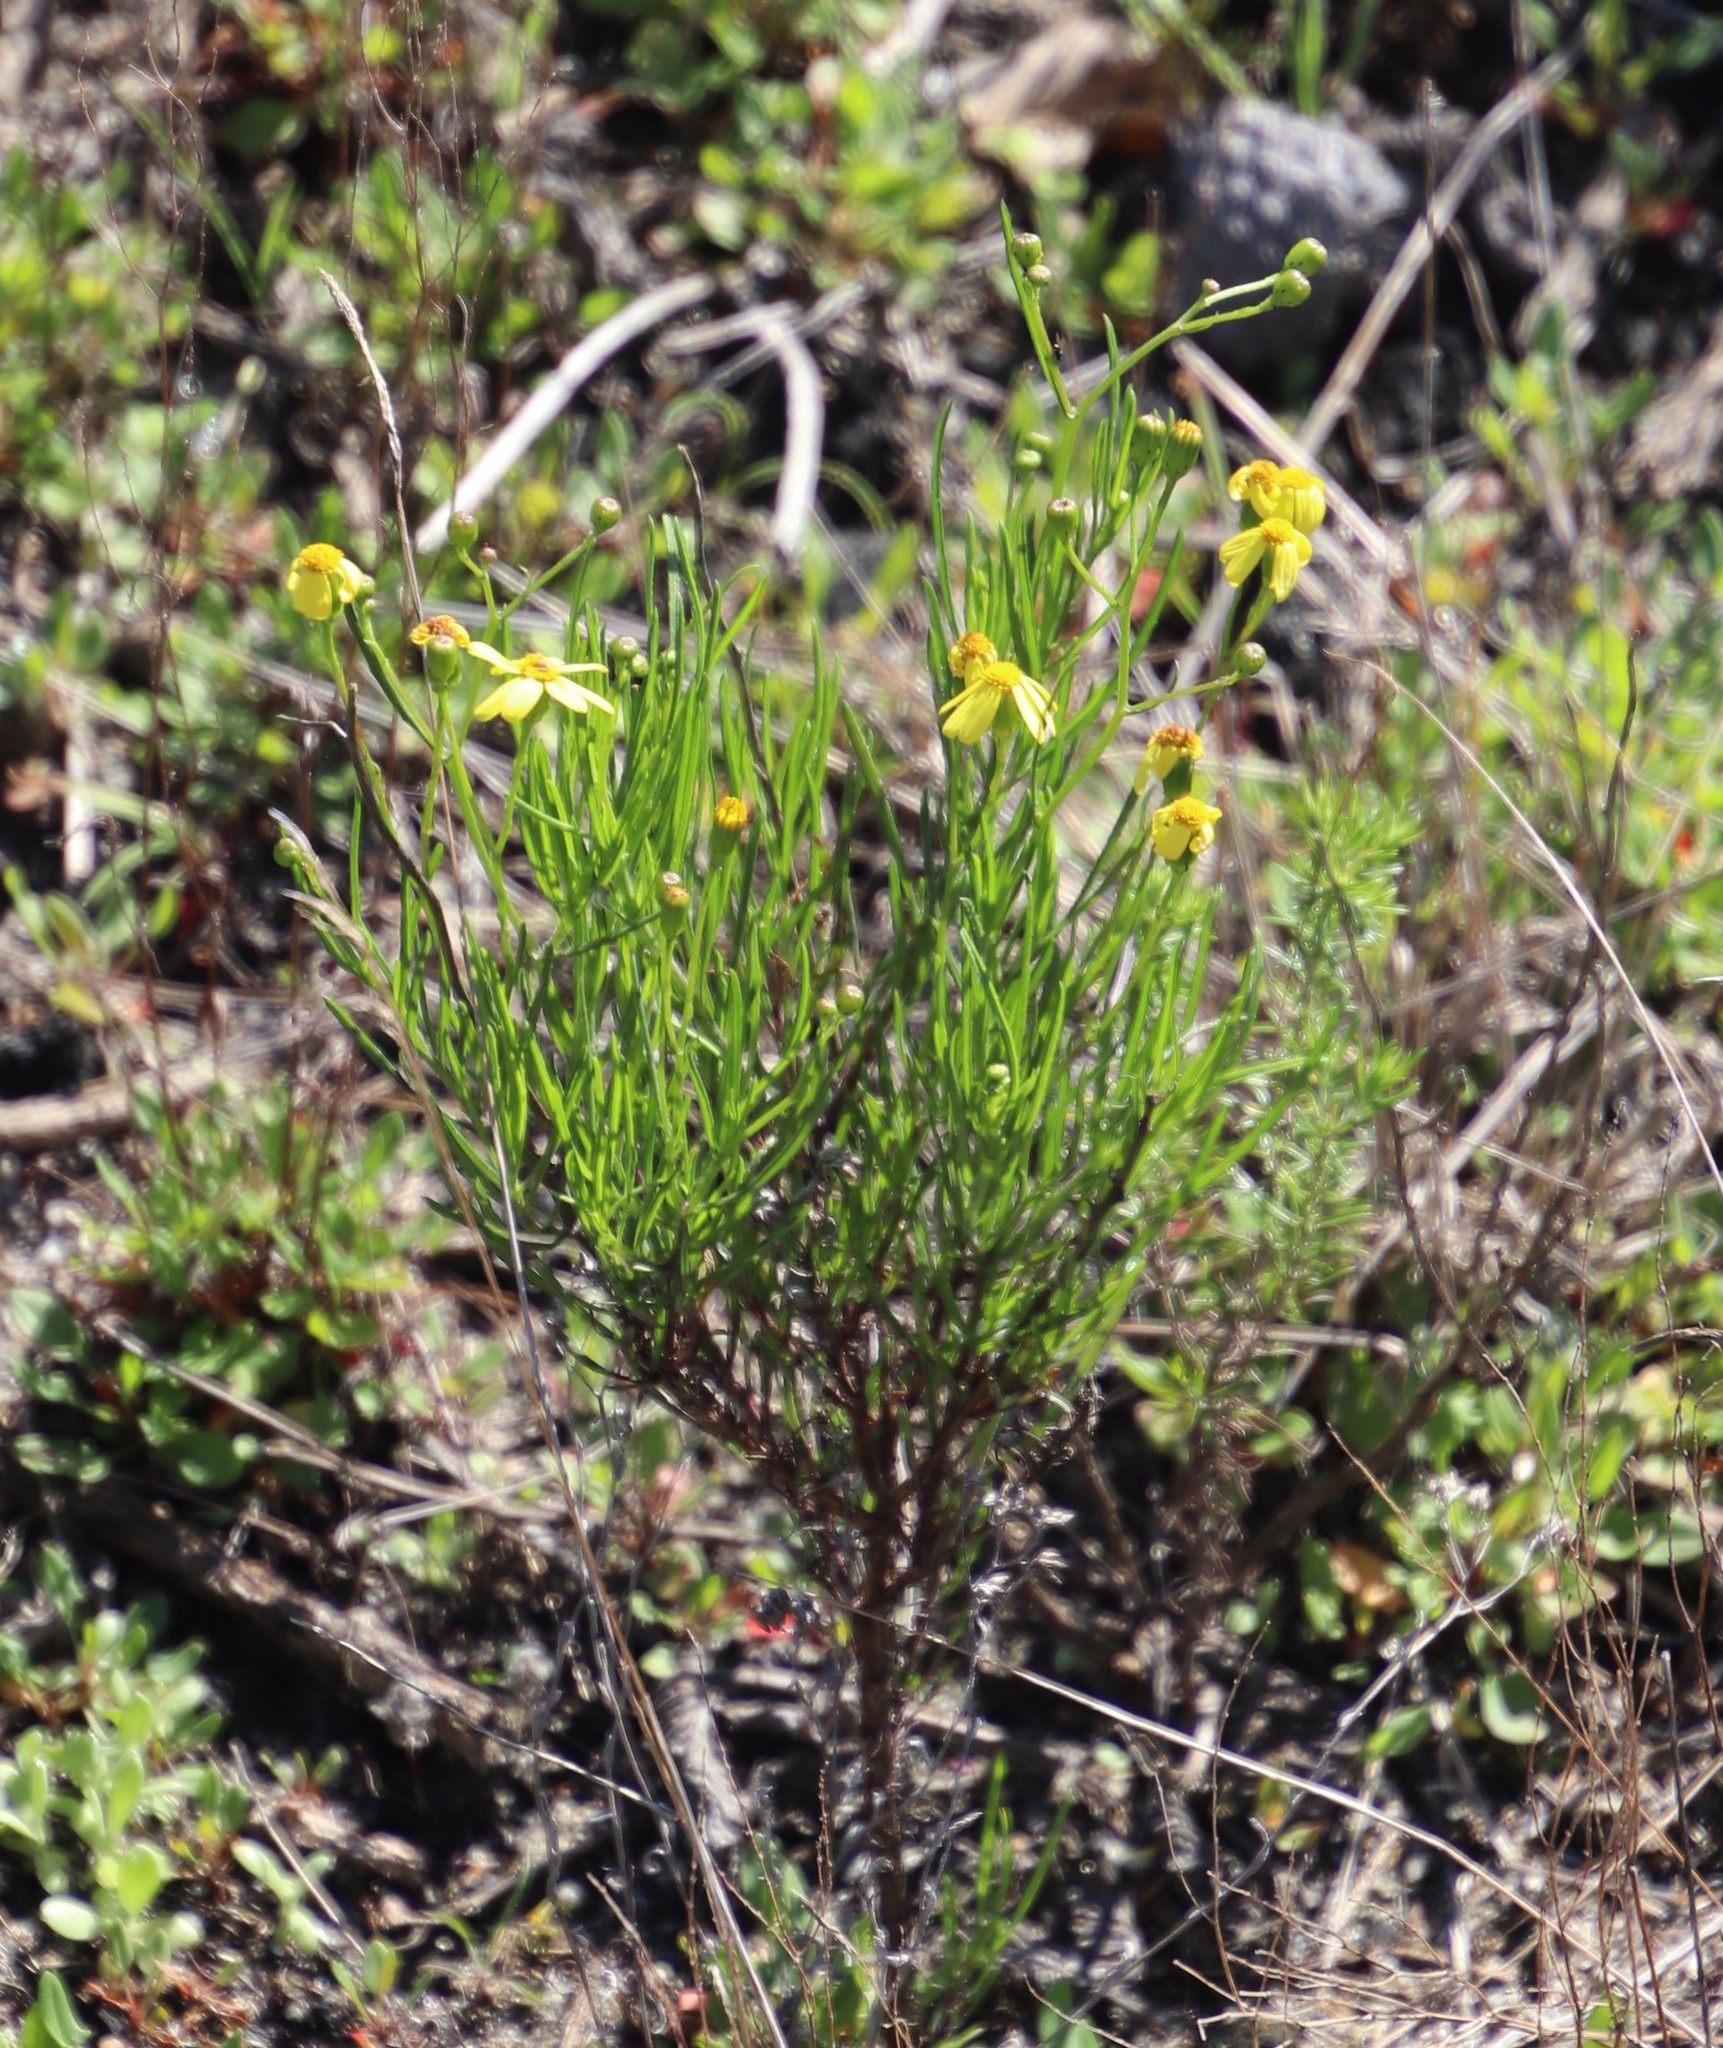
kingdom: Plantae
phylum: Tracheophyta
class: Magnoliopsida
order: Asterales
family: Asteraceae
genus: Senecio
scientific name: Senecio burchellii
